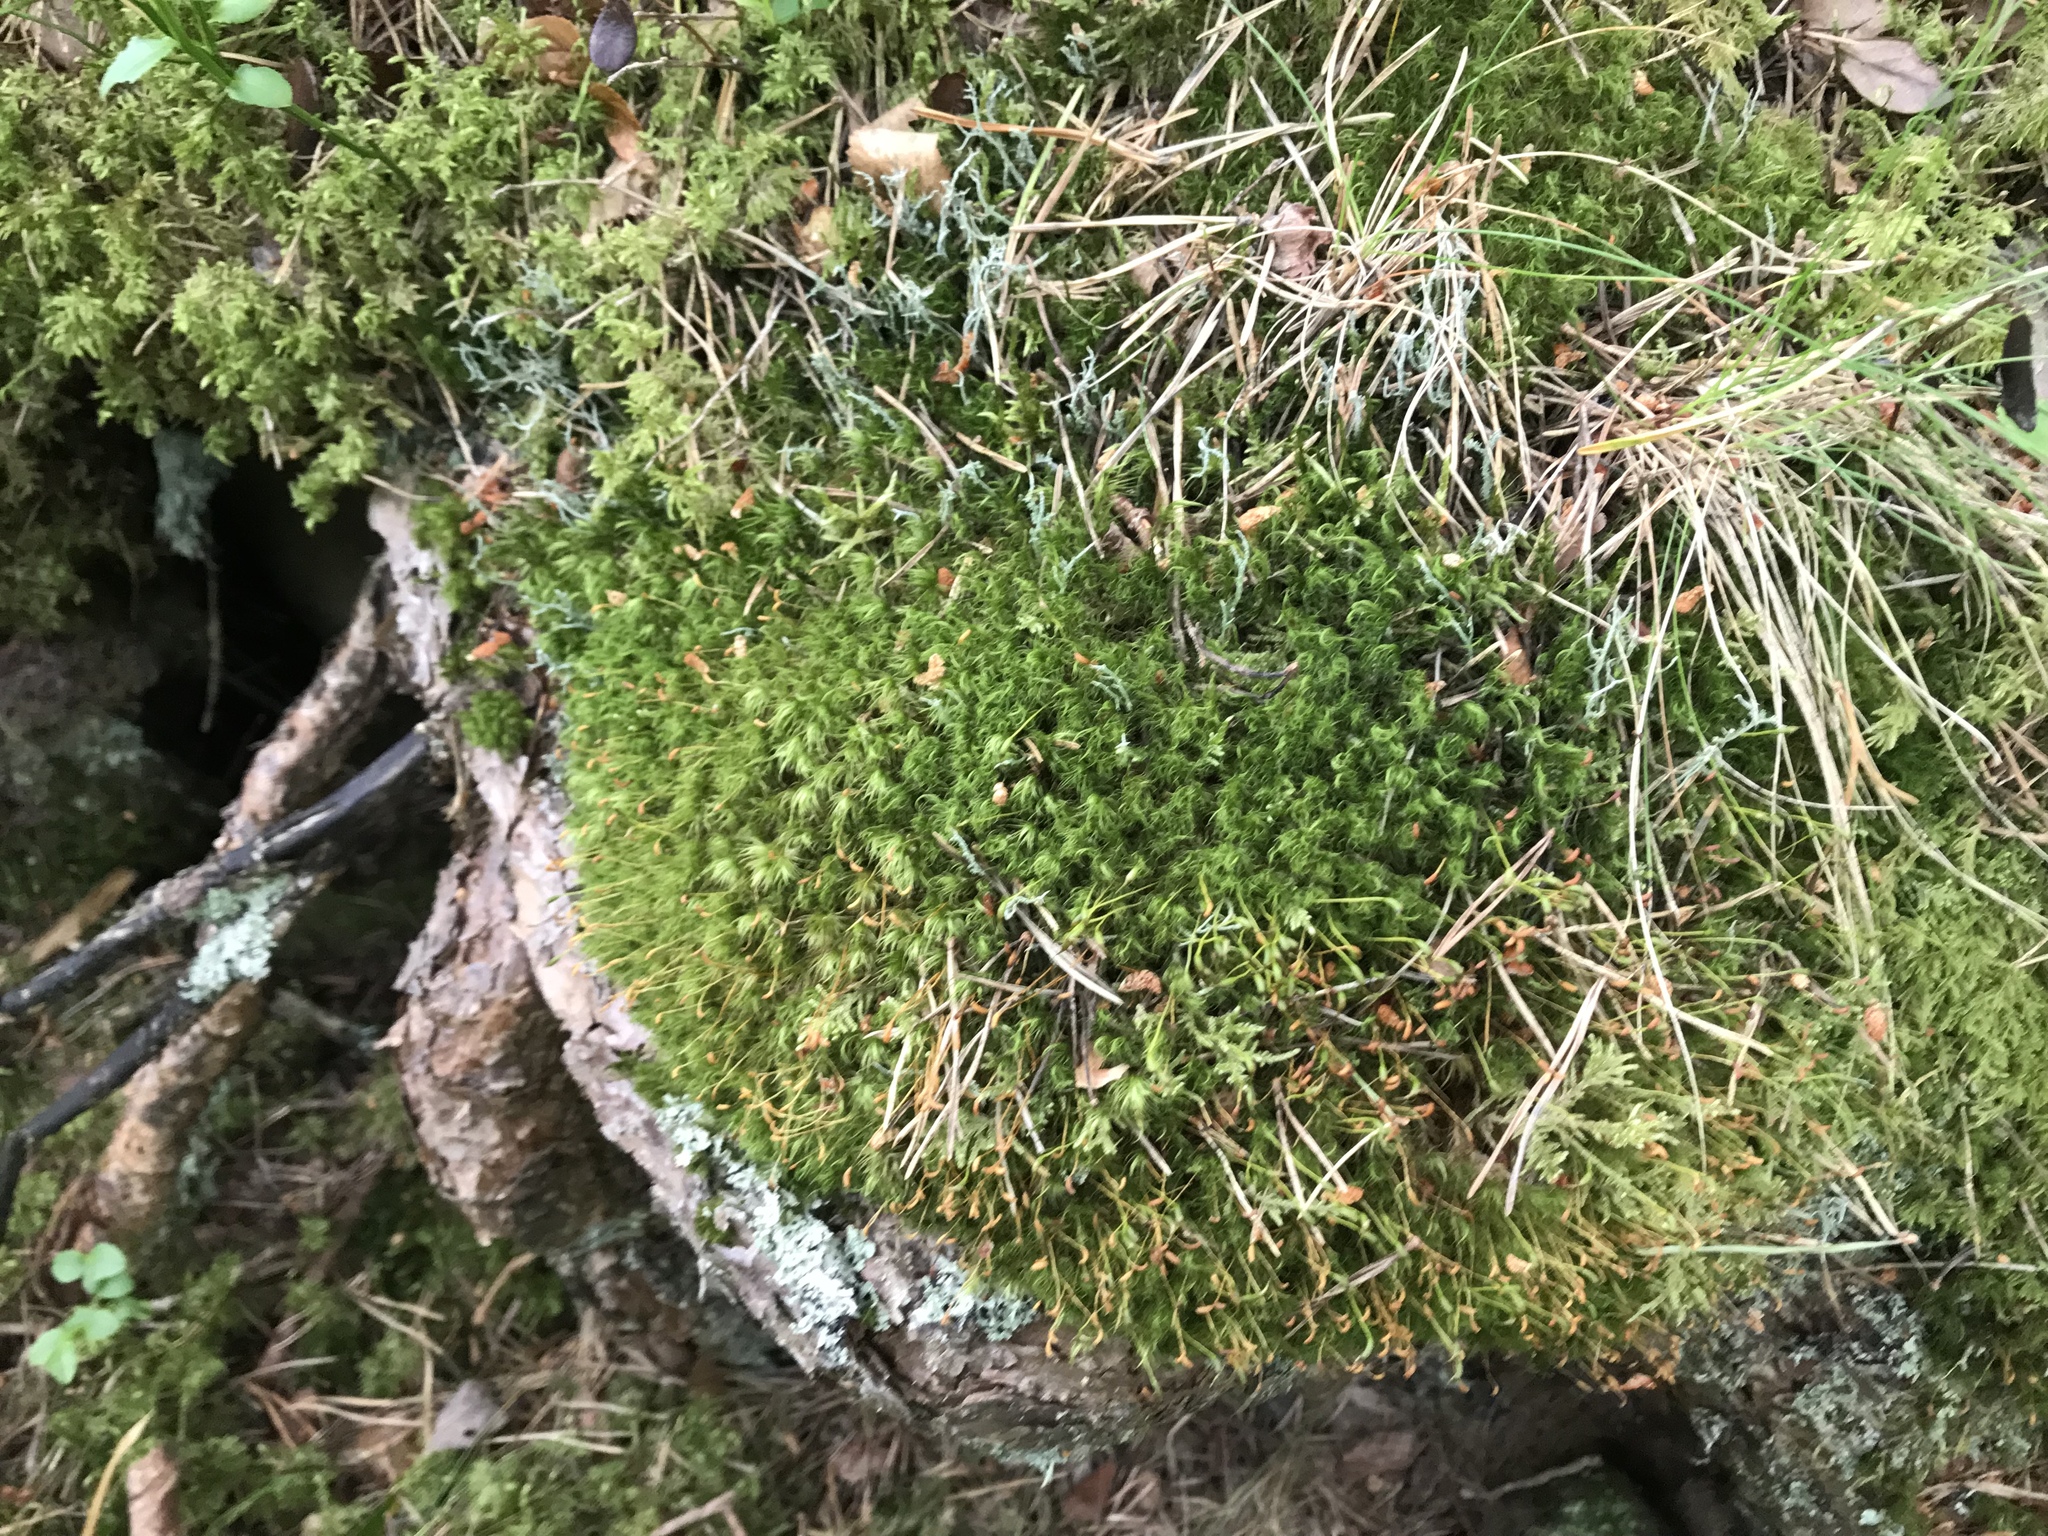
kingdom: Plantae
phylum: Bryophyta
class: Bryopsida
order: Dicranales
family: Dicranaceae
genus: Dicranum
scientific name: Dicranum fuscescens
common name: Curly heron's-bill moss
